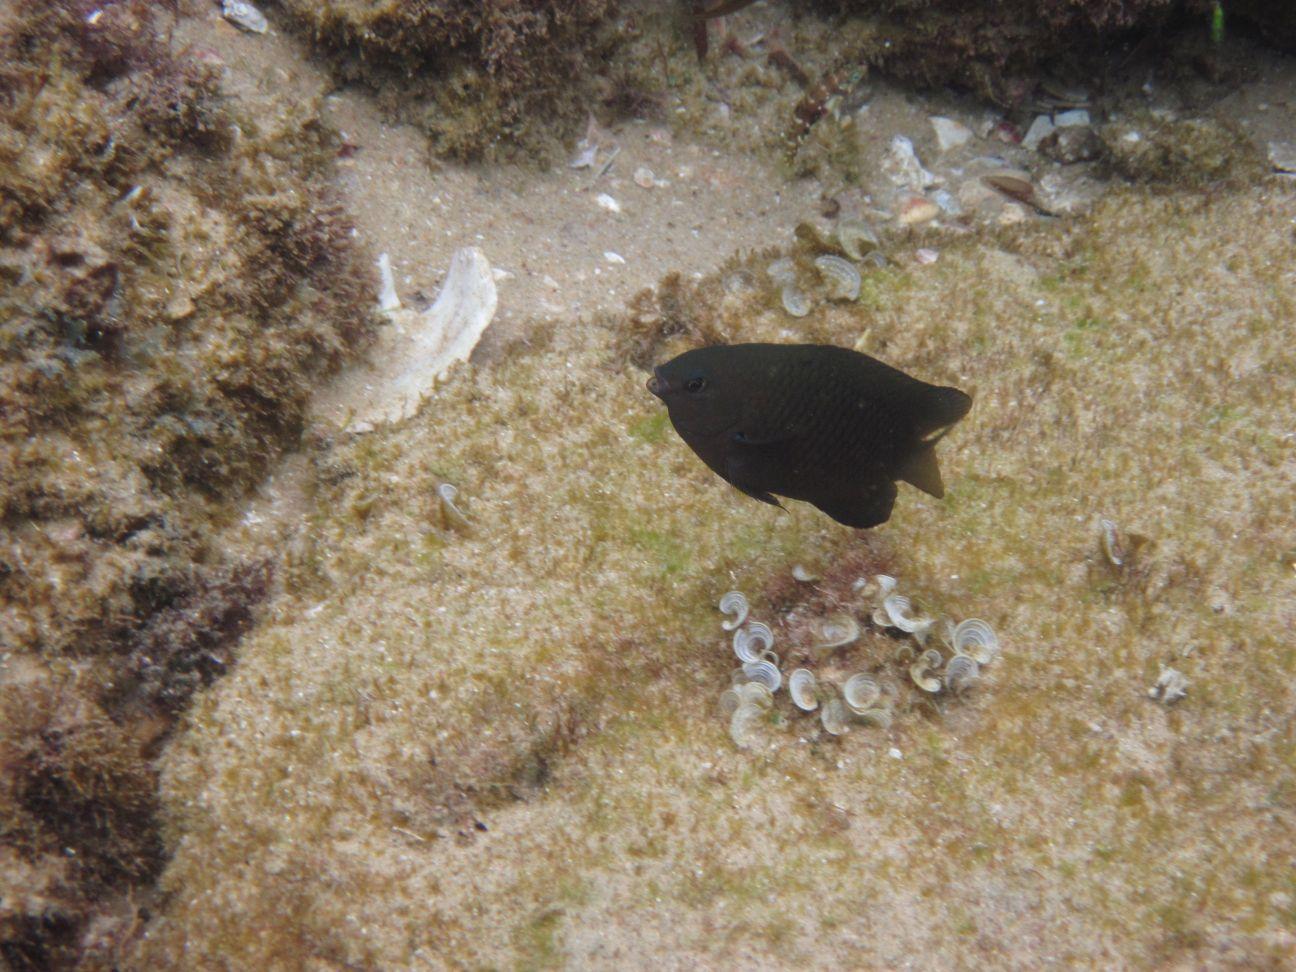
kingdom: Animalia
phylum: Chordata
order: Perciformes
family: Pomacentridae
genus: Chrysiptera
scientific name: Chrysiptera unimaculata
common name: Onespot demoiselle
